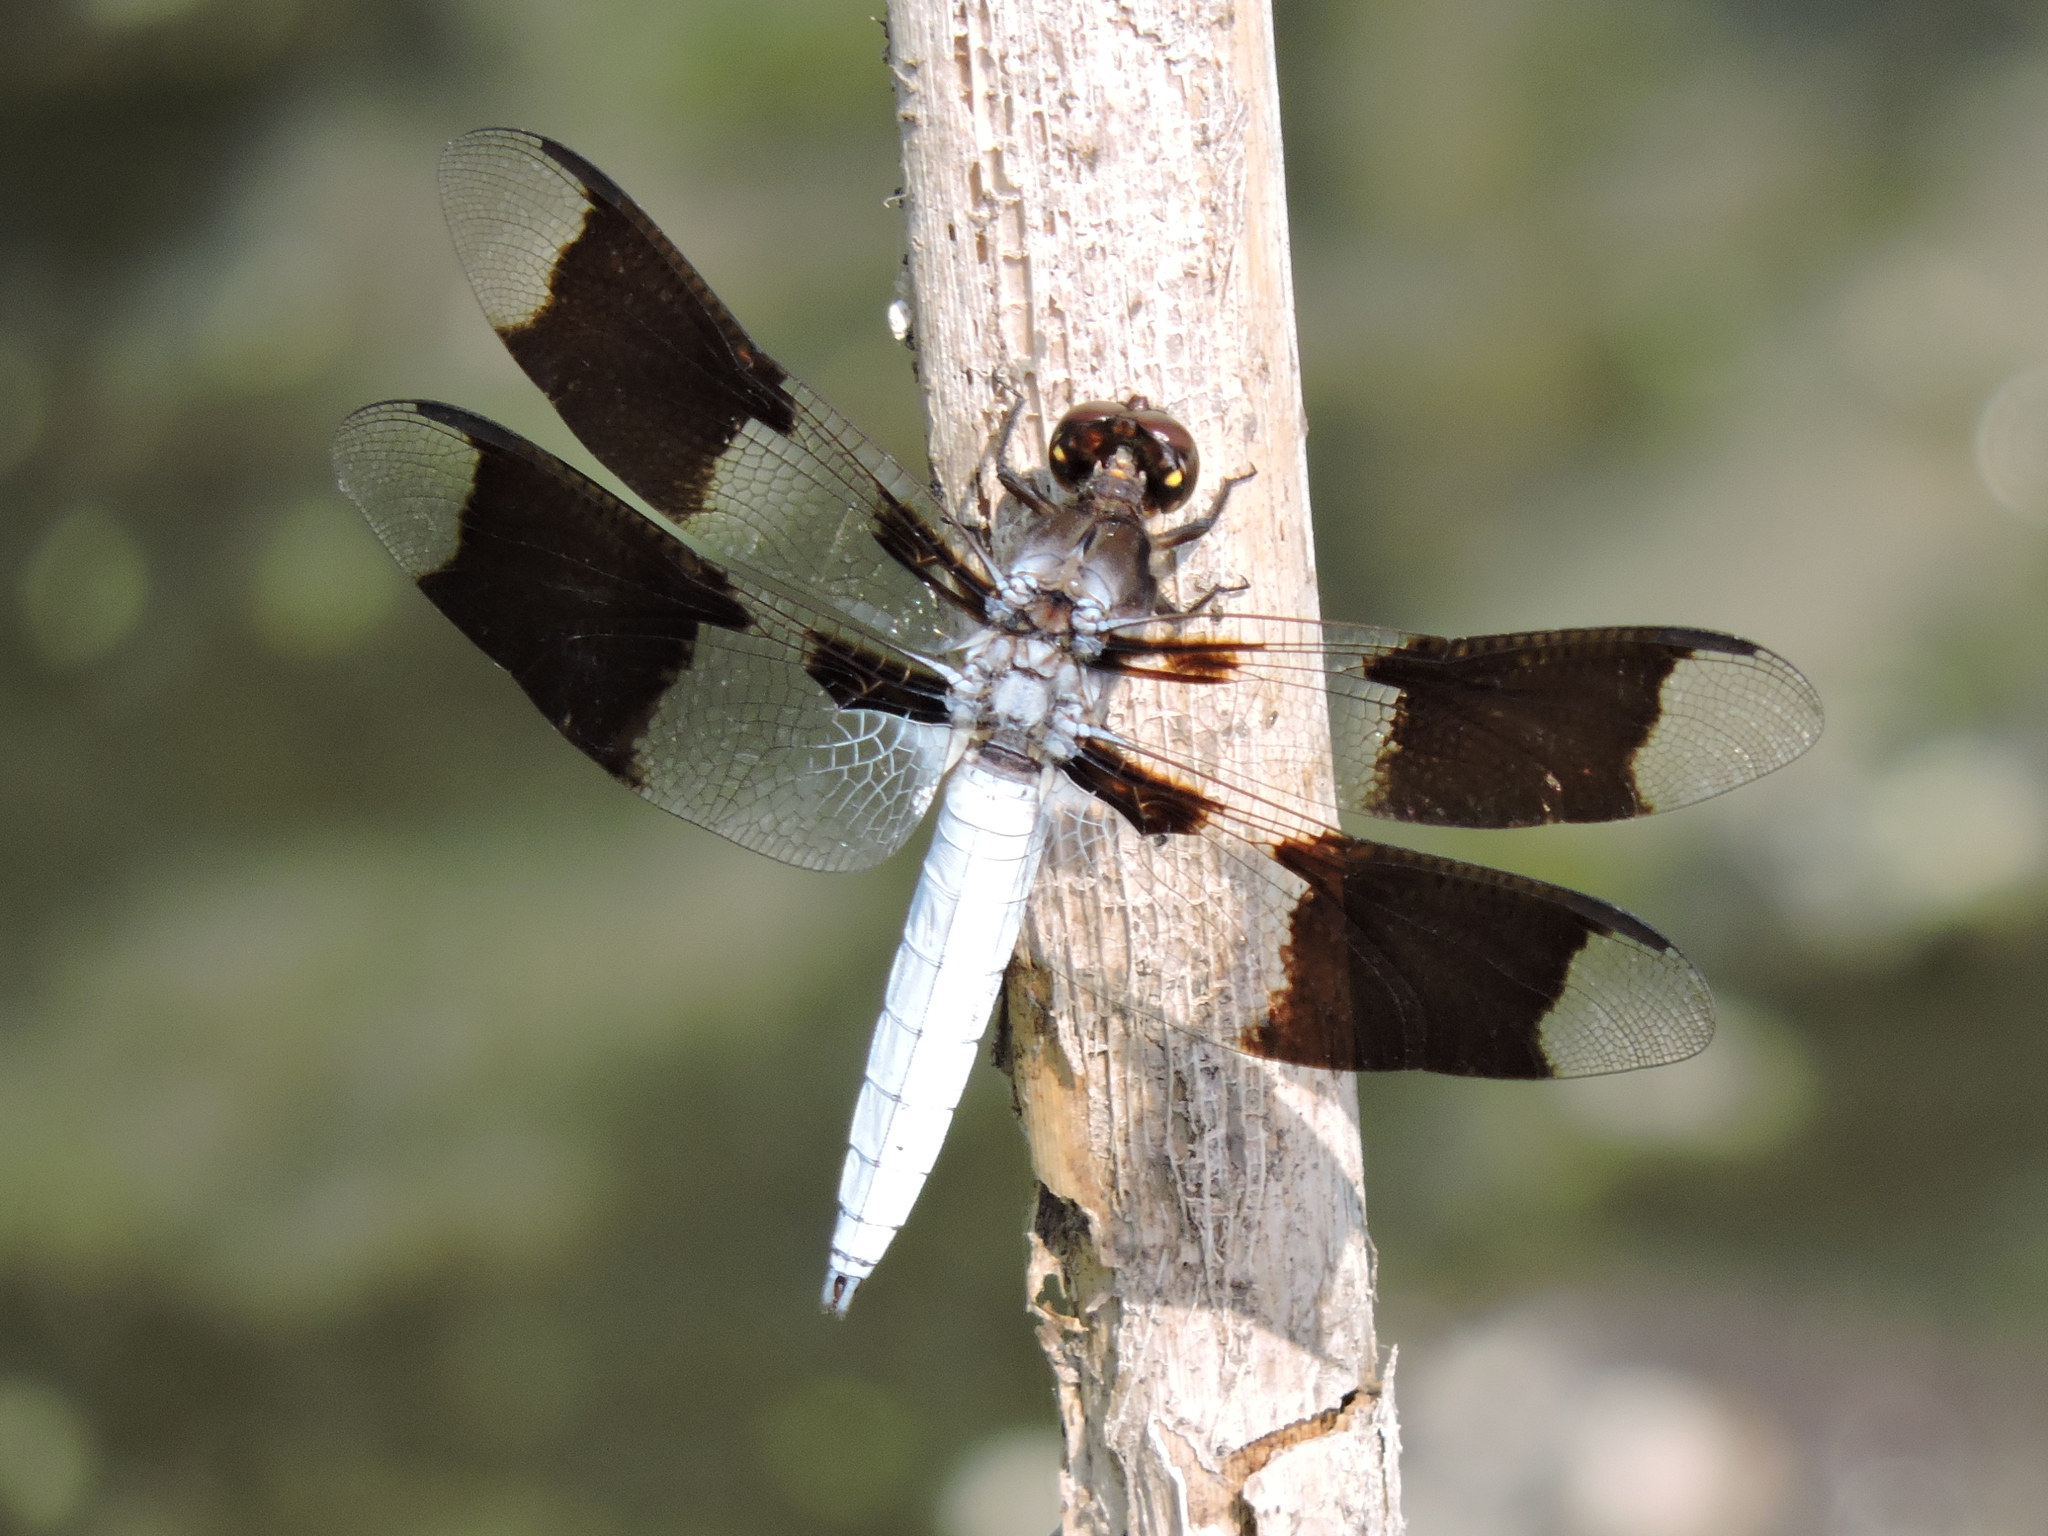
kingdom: Animalia
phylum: Arthropoda
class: Insecta
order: Odonata
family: Libellulidae
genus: Plathemis
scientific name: Plathemis lydia
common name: Common whitetail
